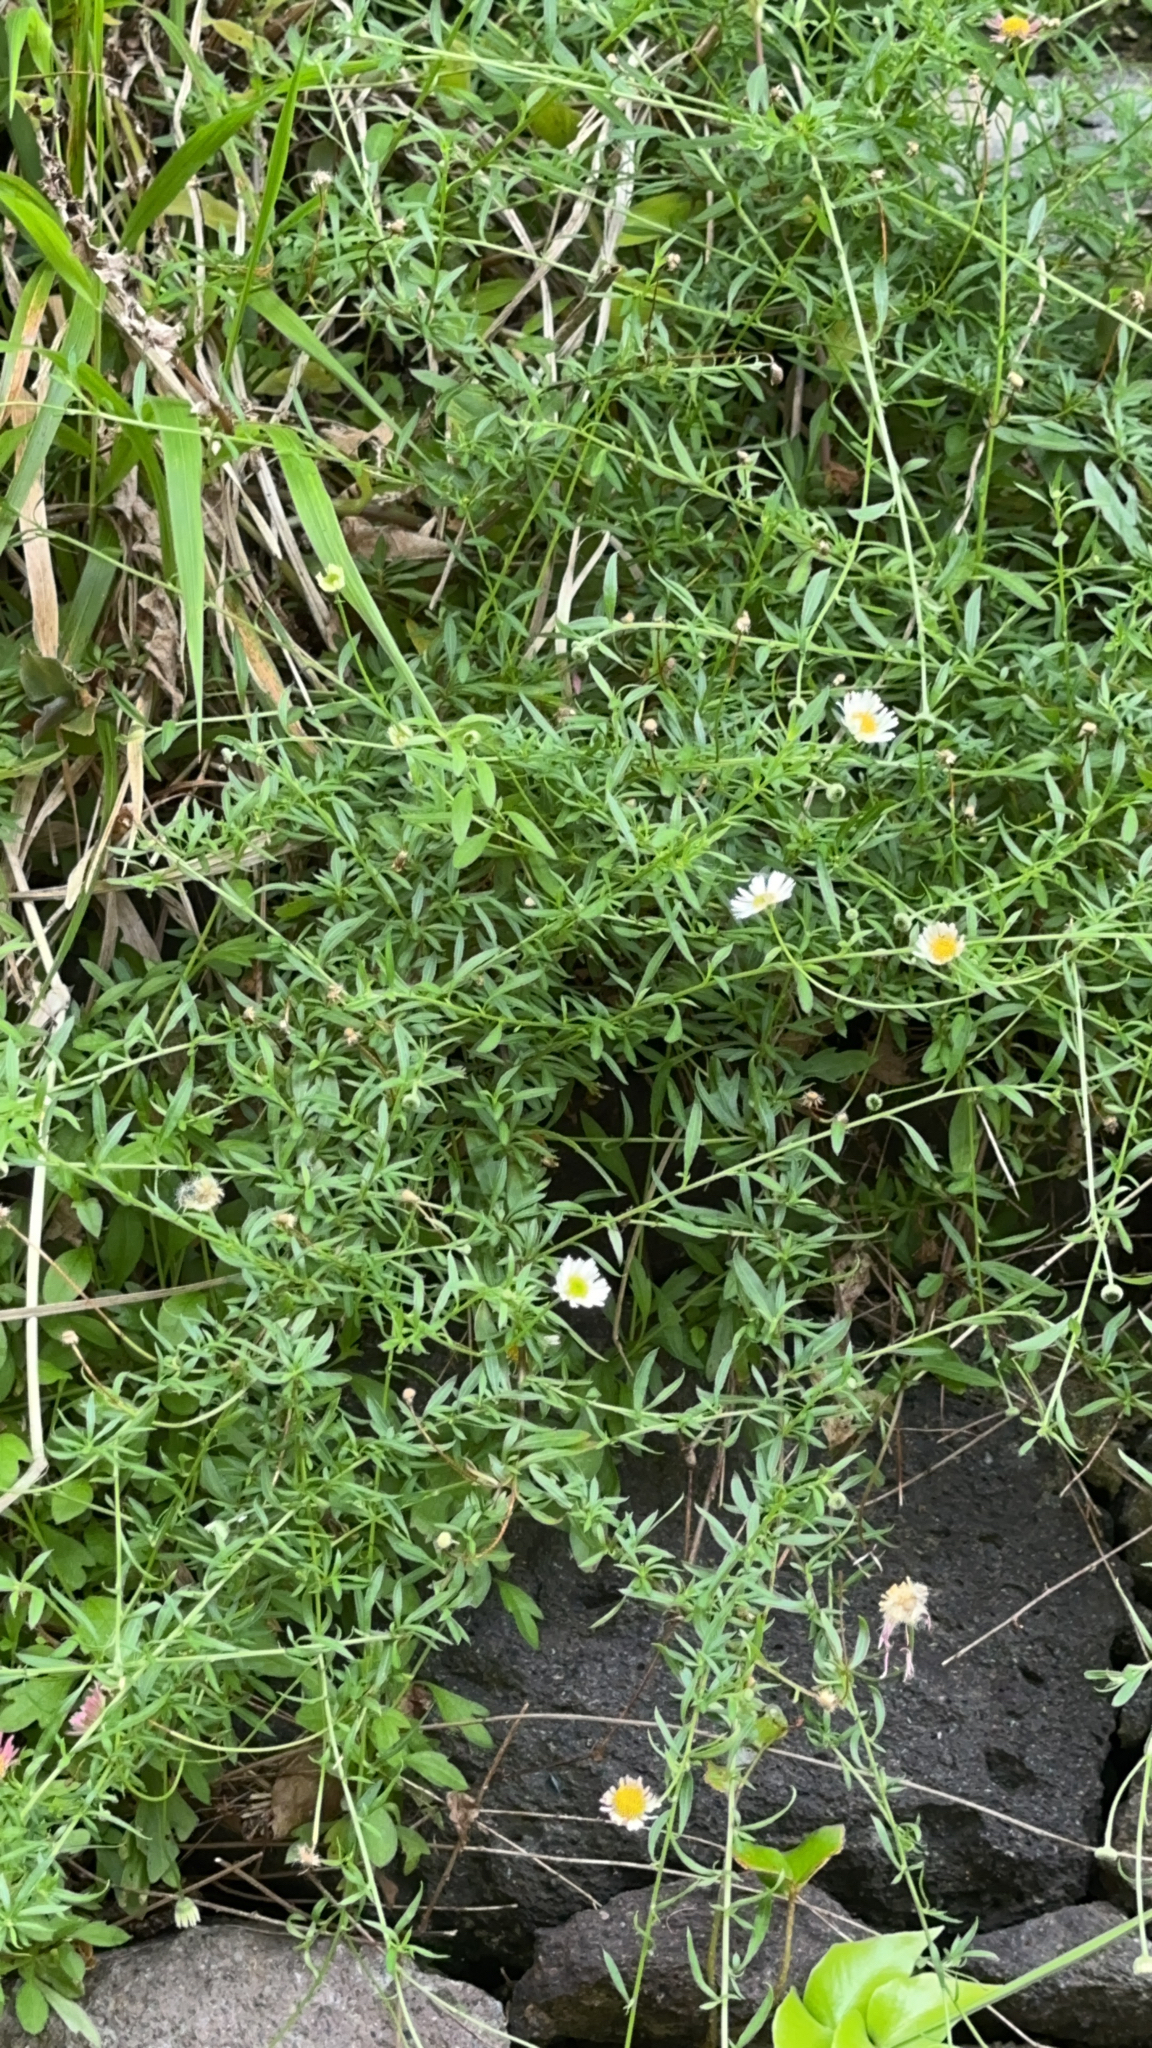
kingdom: Plantae
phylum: Tracheophyta
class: Magnoliopsida
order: Asterales
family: Asteraceae
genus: Erigeron
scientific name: Erigeron karvinskianus
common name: Mexican fleabane
